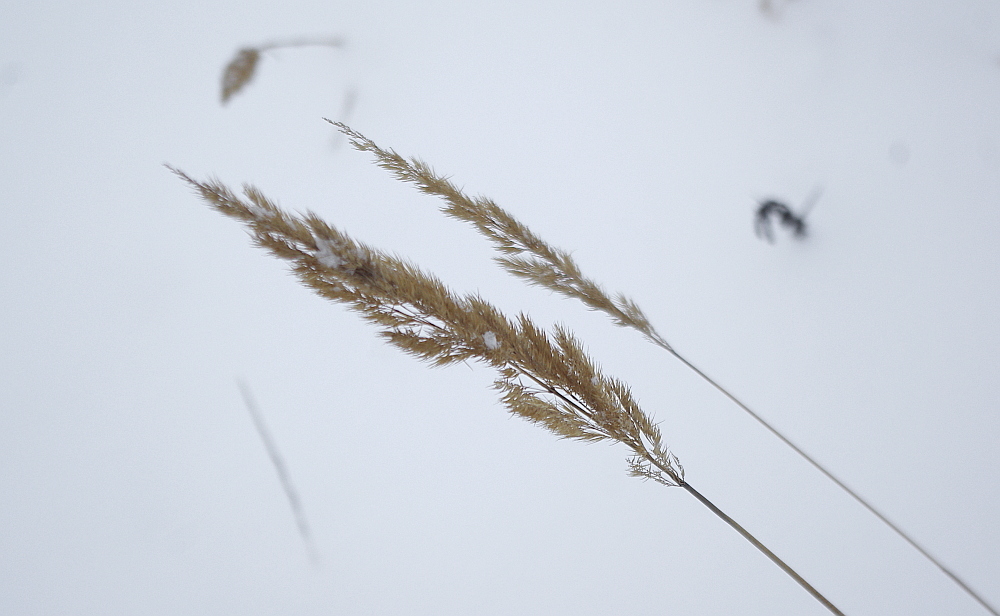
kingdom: Plantae
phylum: Tracheophyta
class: Liliopsida
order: Poales
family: Poaceae
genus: Calamagrostis
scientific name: Calamagrostis epigejos
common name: Wood small-reed
